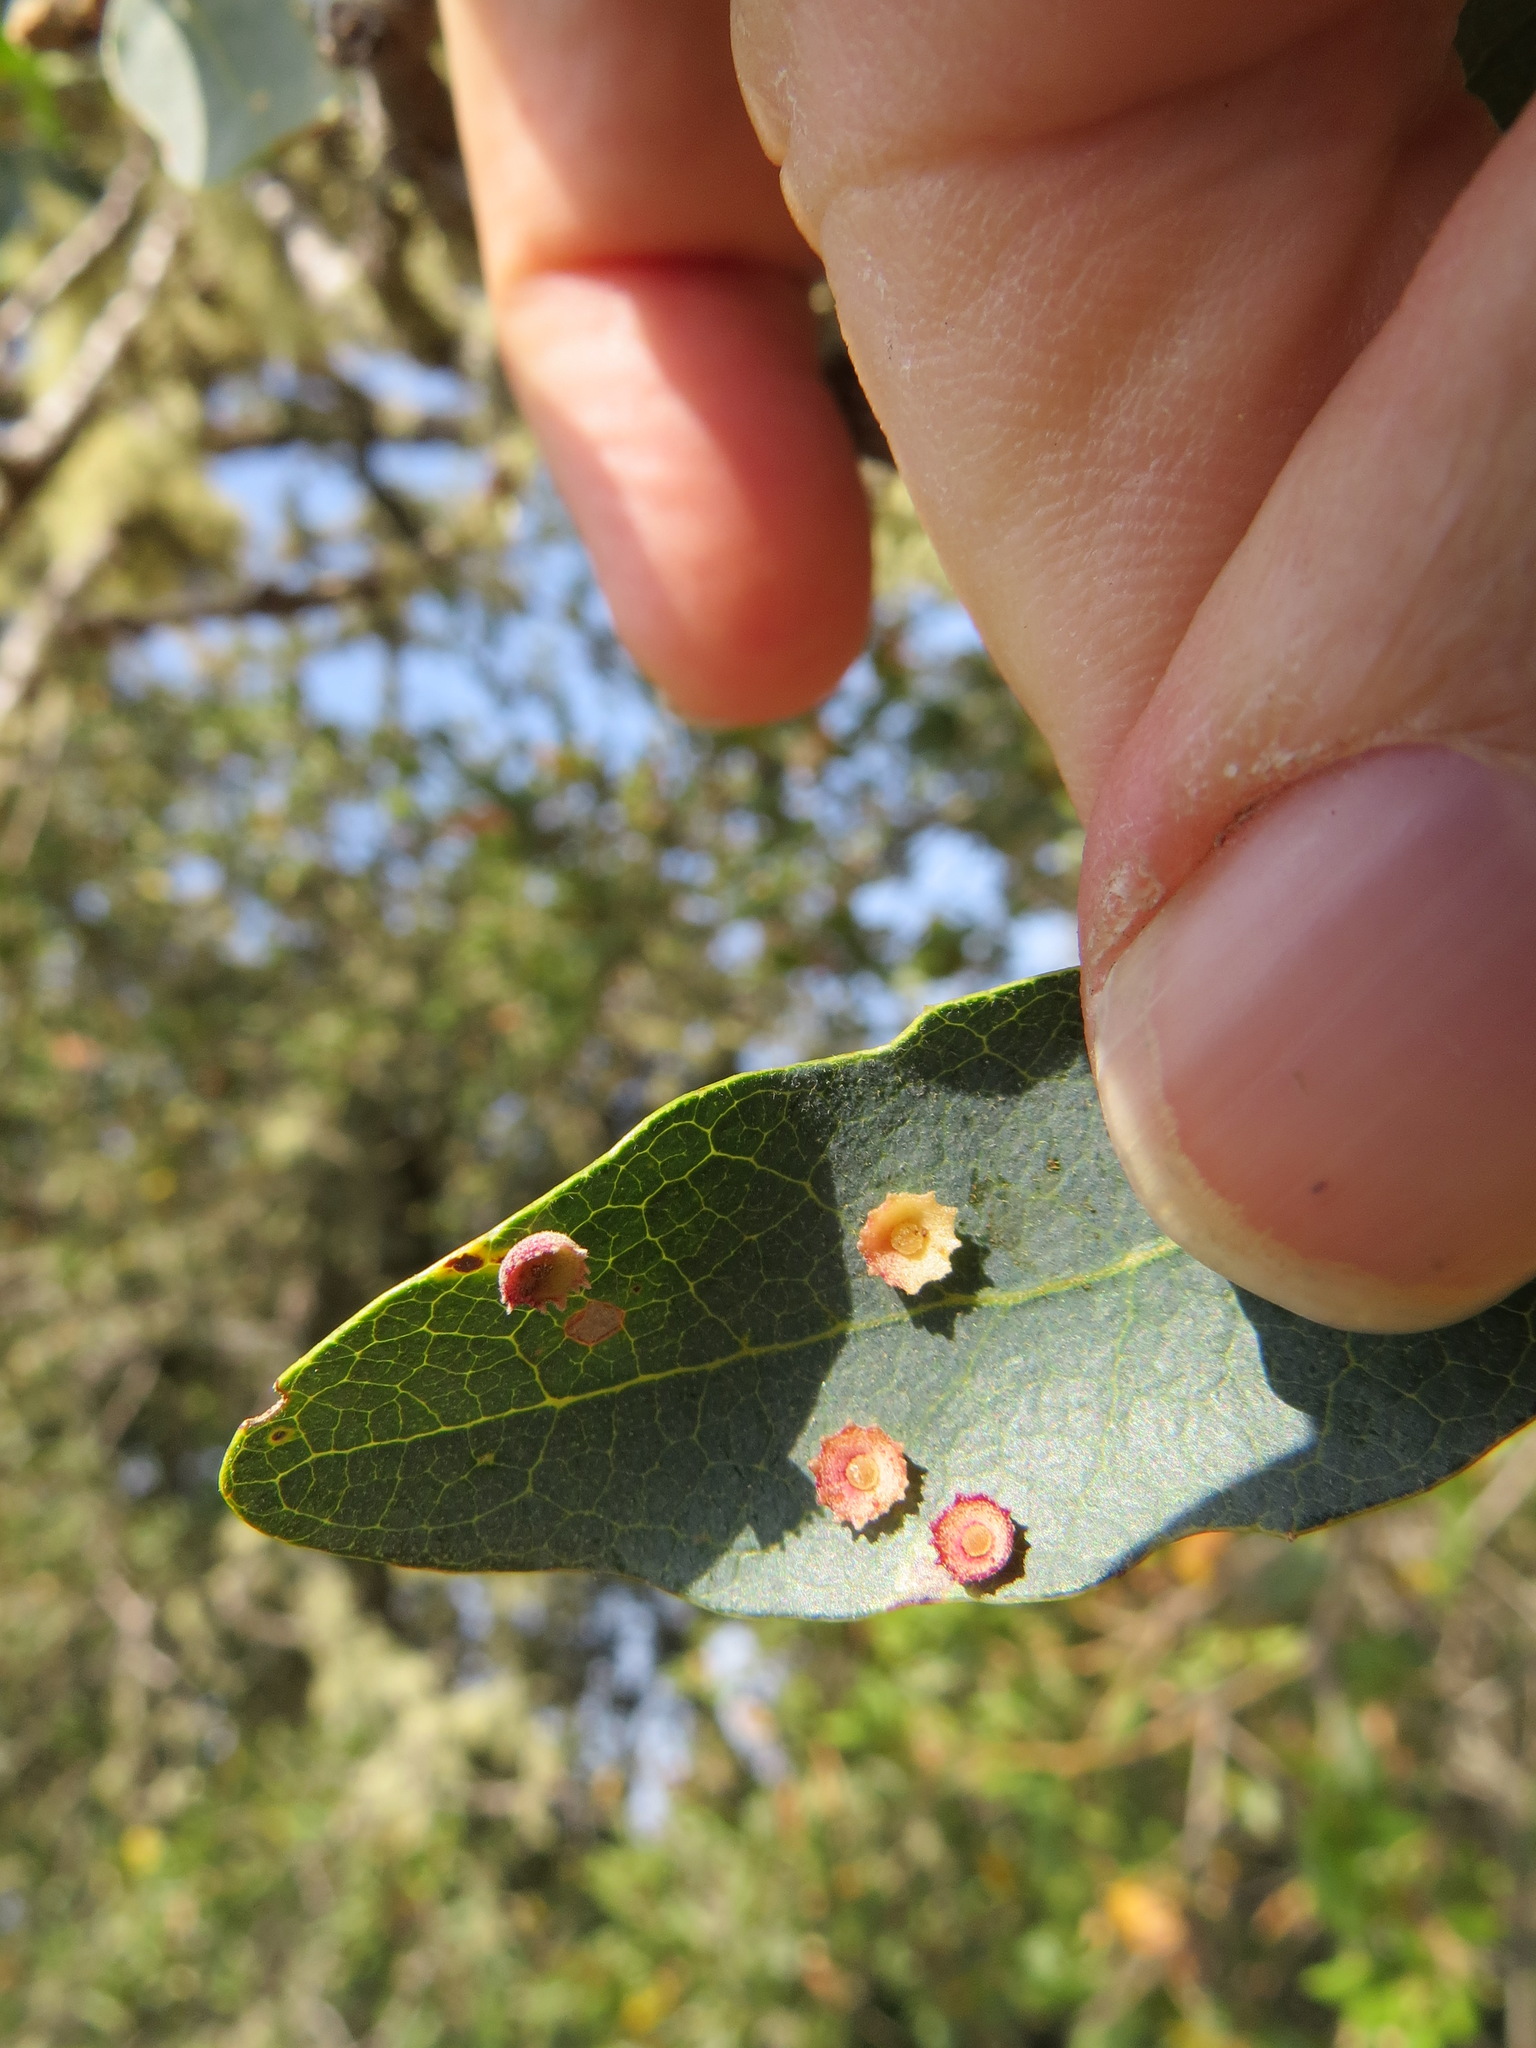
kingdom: Animalia
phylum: Arthropoda
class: Insecta
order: Hymenoptera
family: Cynipidae
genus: Andricus
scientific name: Andricus
